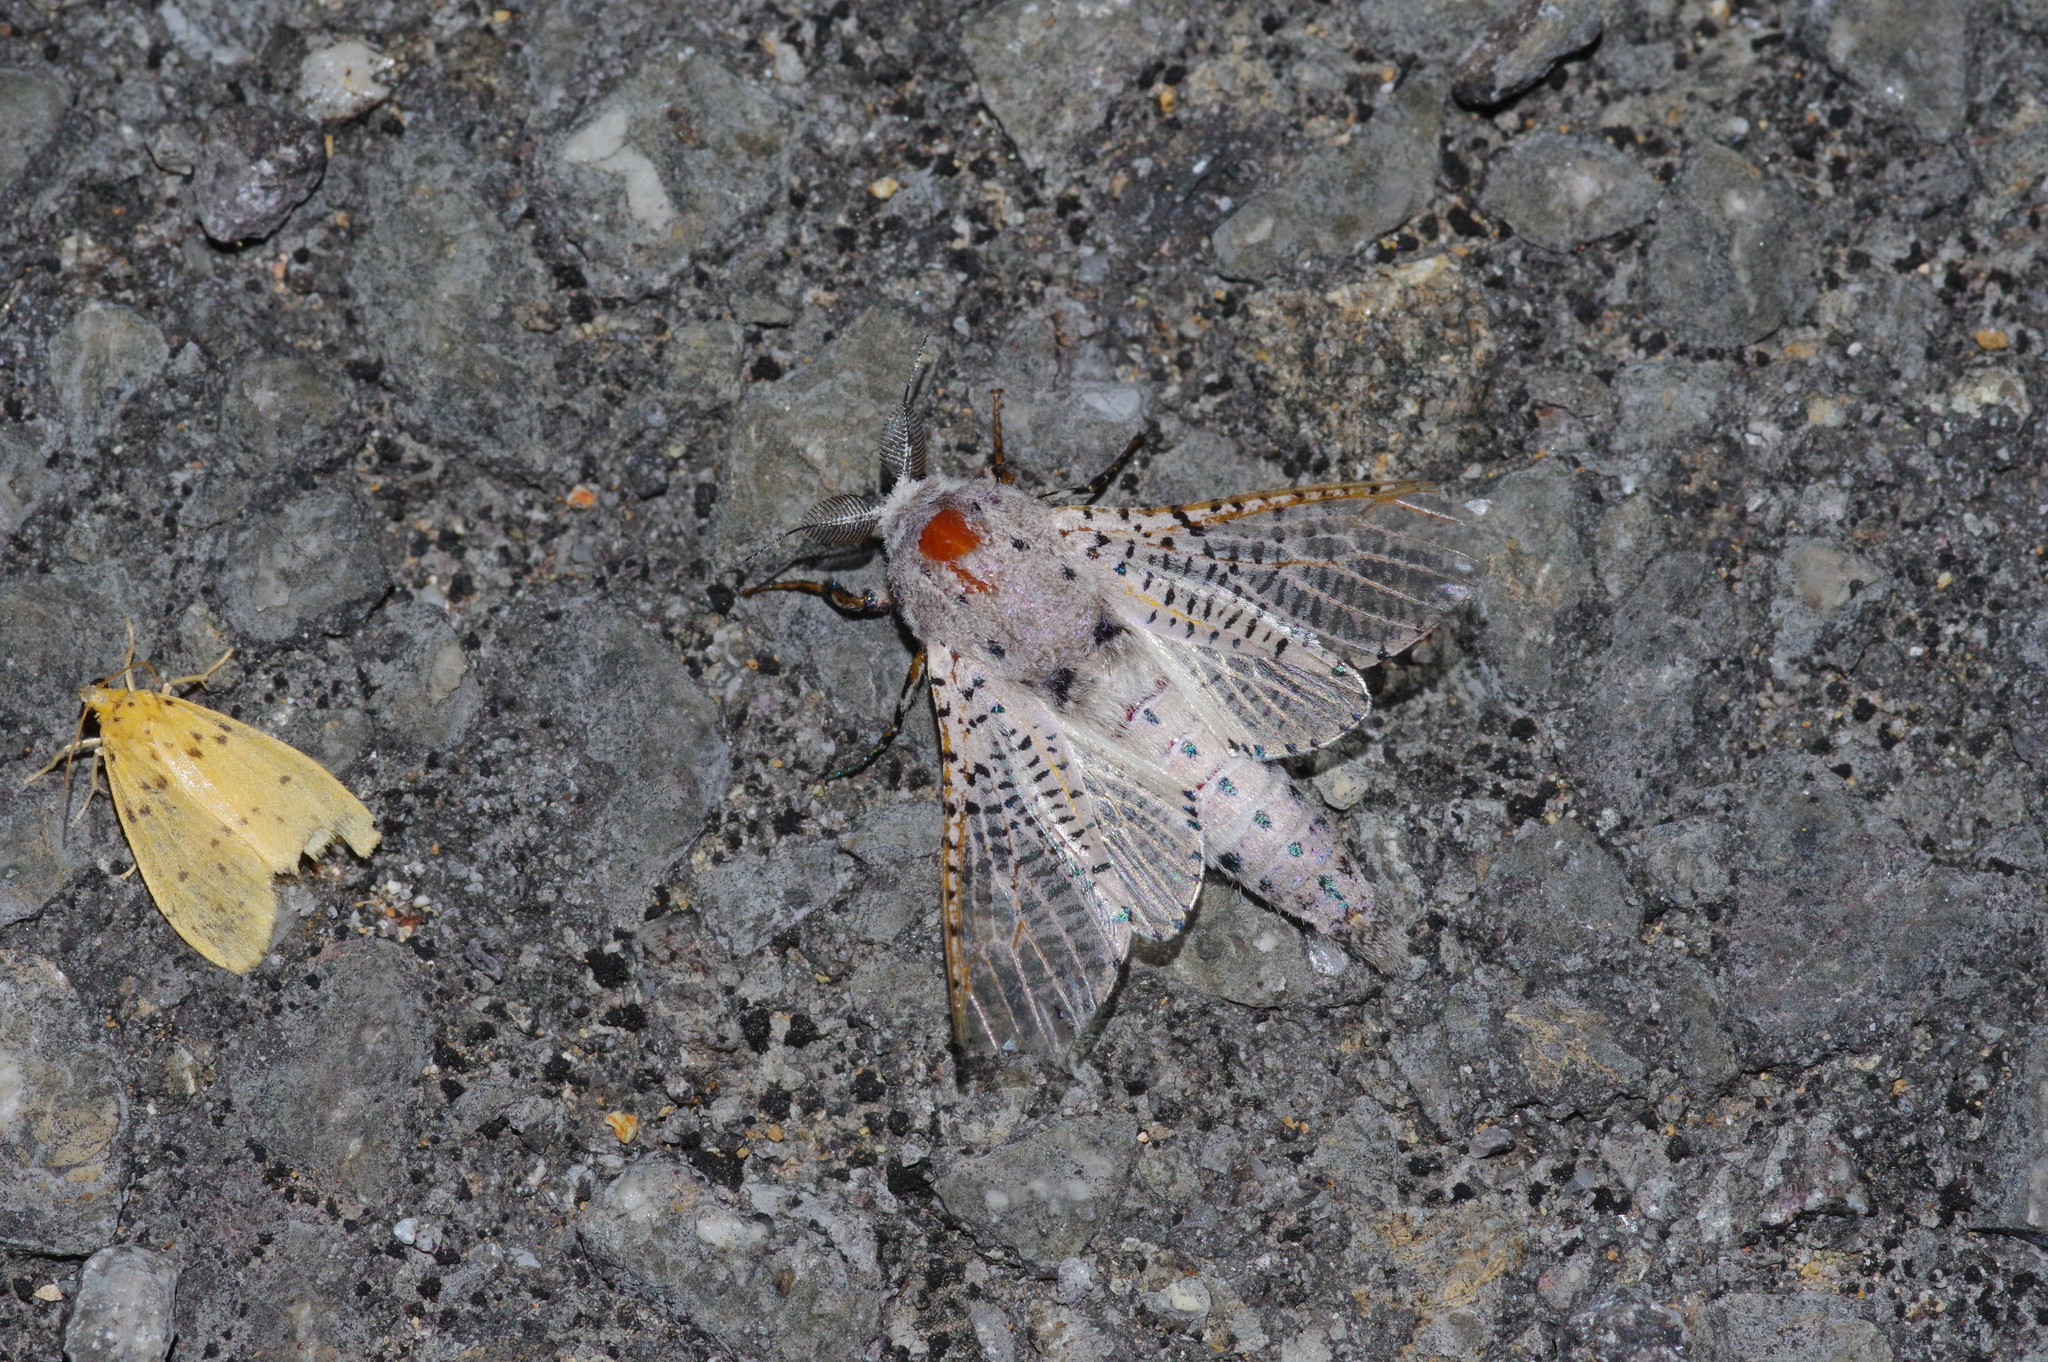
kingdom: Animalia
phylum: Arthropoda
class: Insecta
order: Lepidoptera
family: Cossidae
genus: Polyphagozerra
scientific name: Polyphagozerra coffeae
